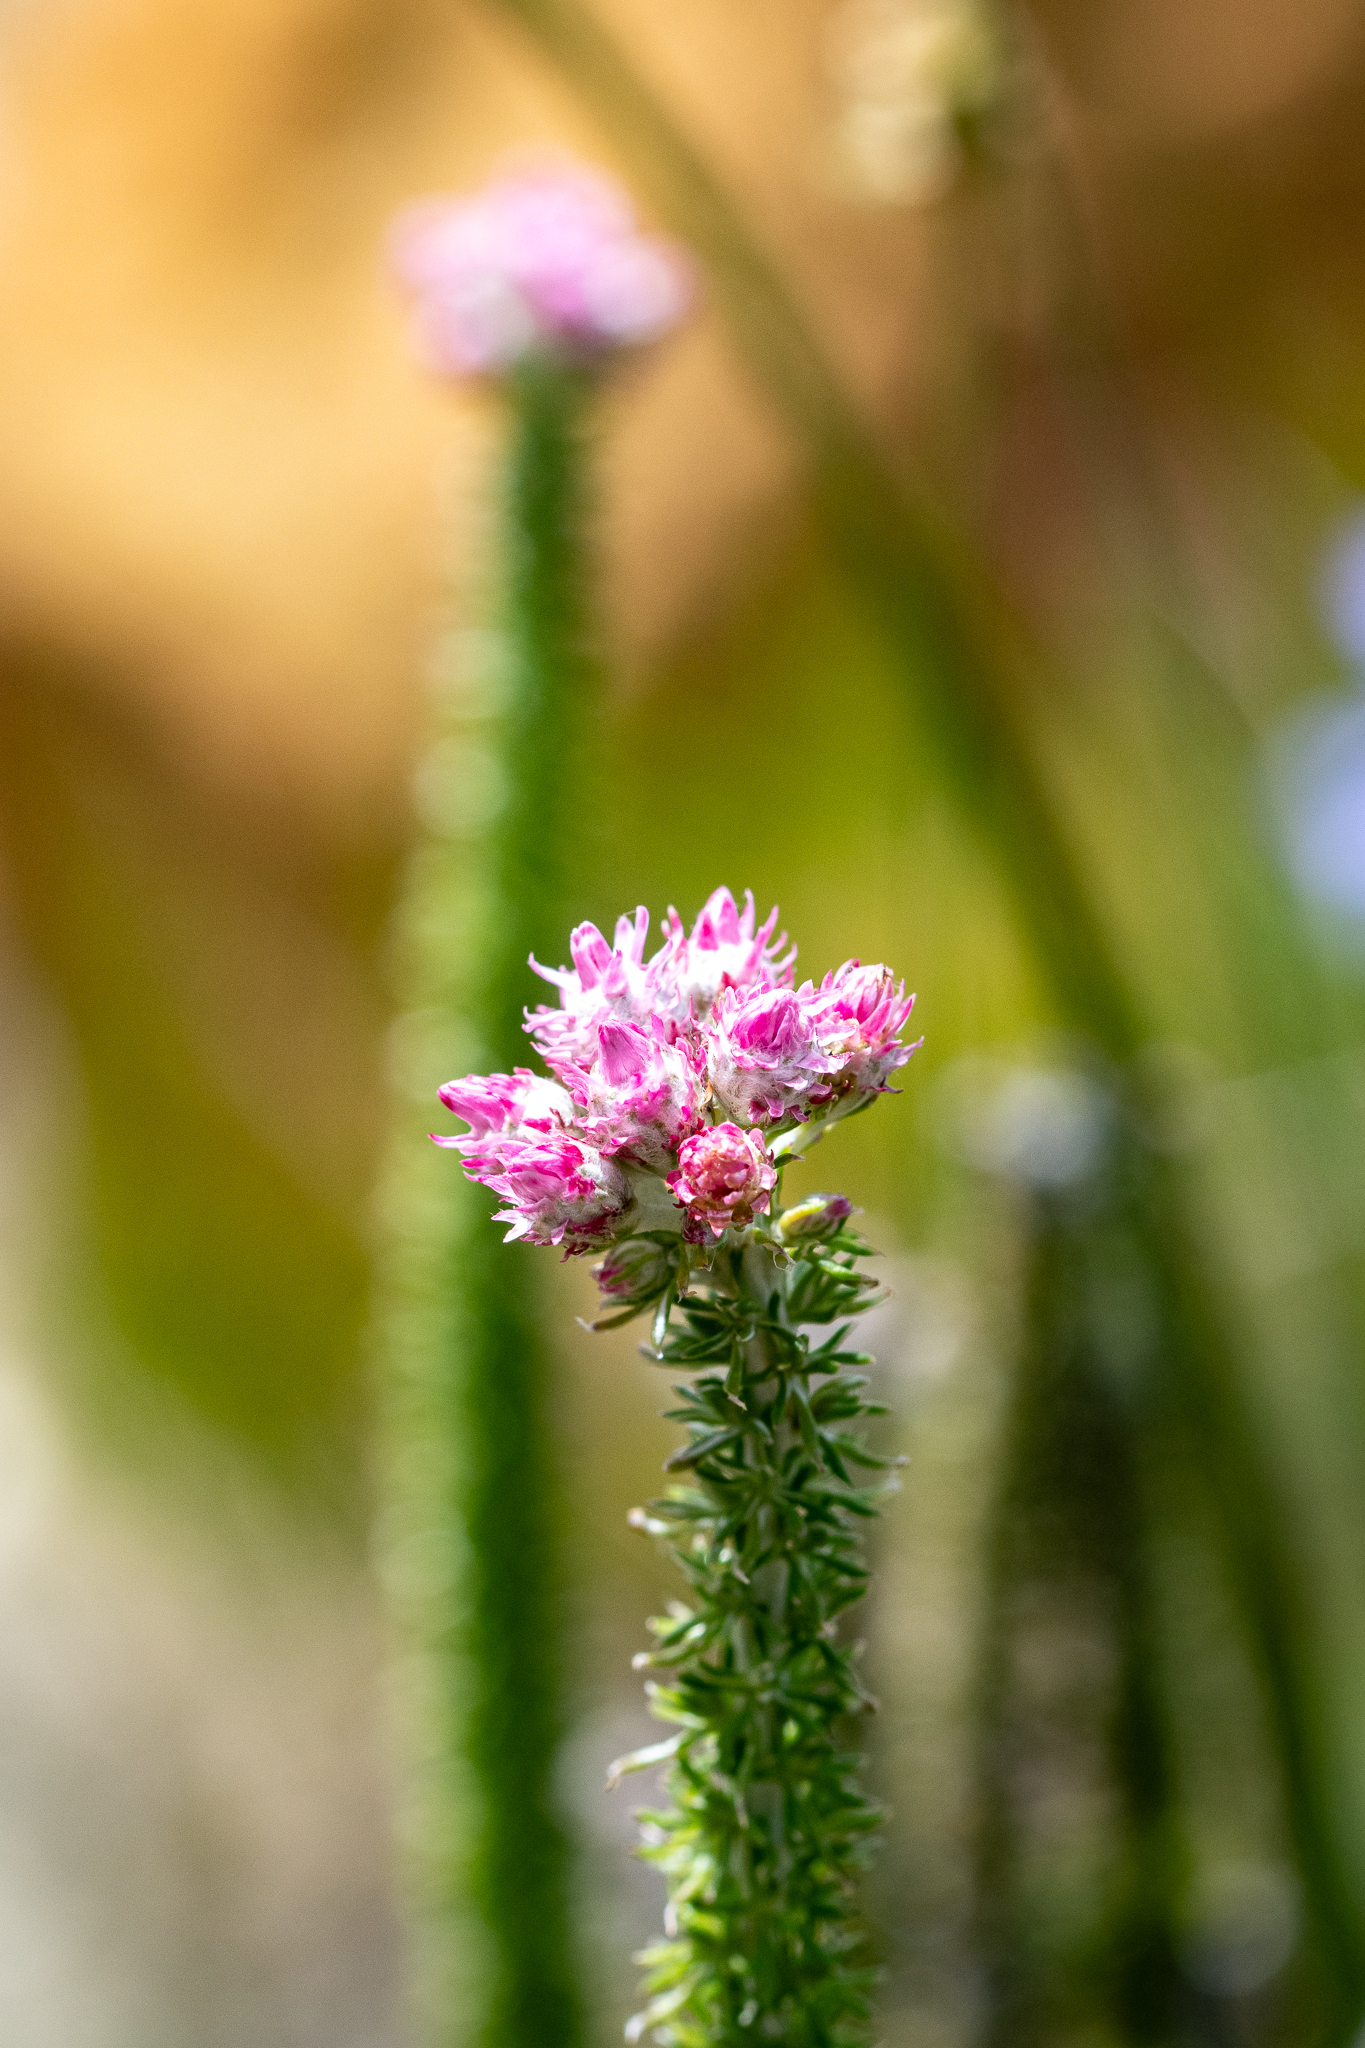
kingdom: Plantae
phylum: Tracheophyta
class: Magnoliopsida
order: Asterales
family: Asteraceae
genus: Lachnospermum
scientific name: Lachnospermum umbellatum
